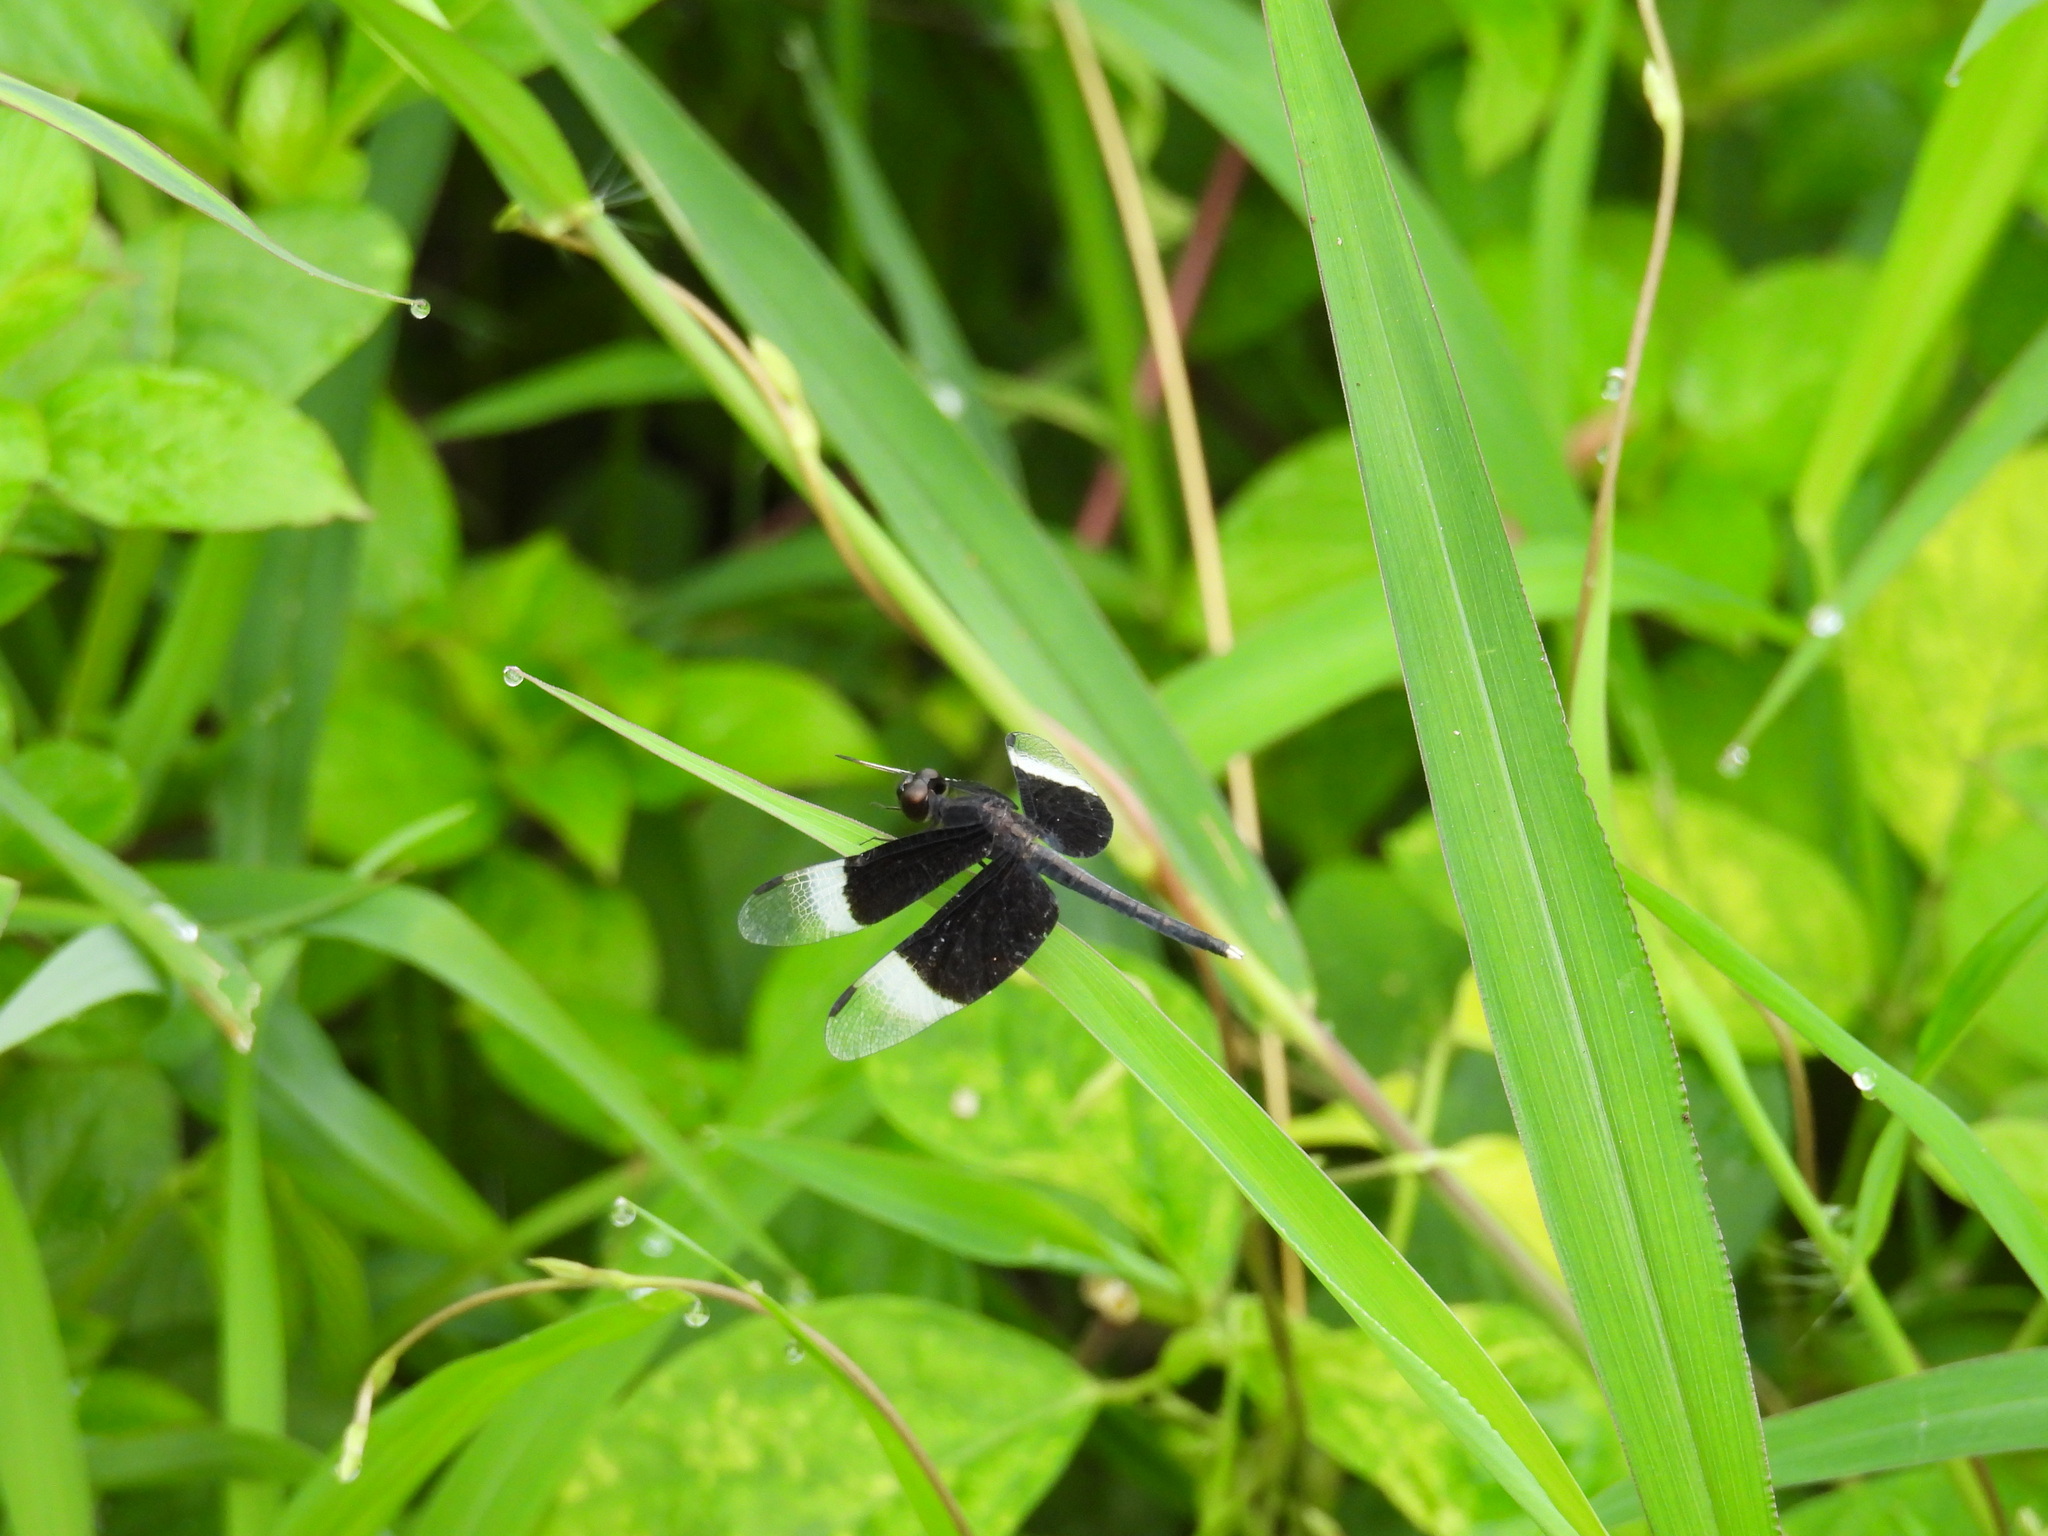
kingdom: Animalia
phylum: Arthropoda
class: Insecta
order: Odonata
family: Libellulidae
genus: Neurothemis
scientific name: Neurothemis tullia
